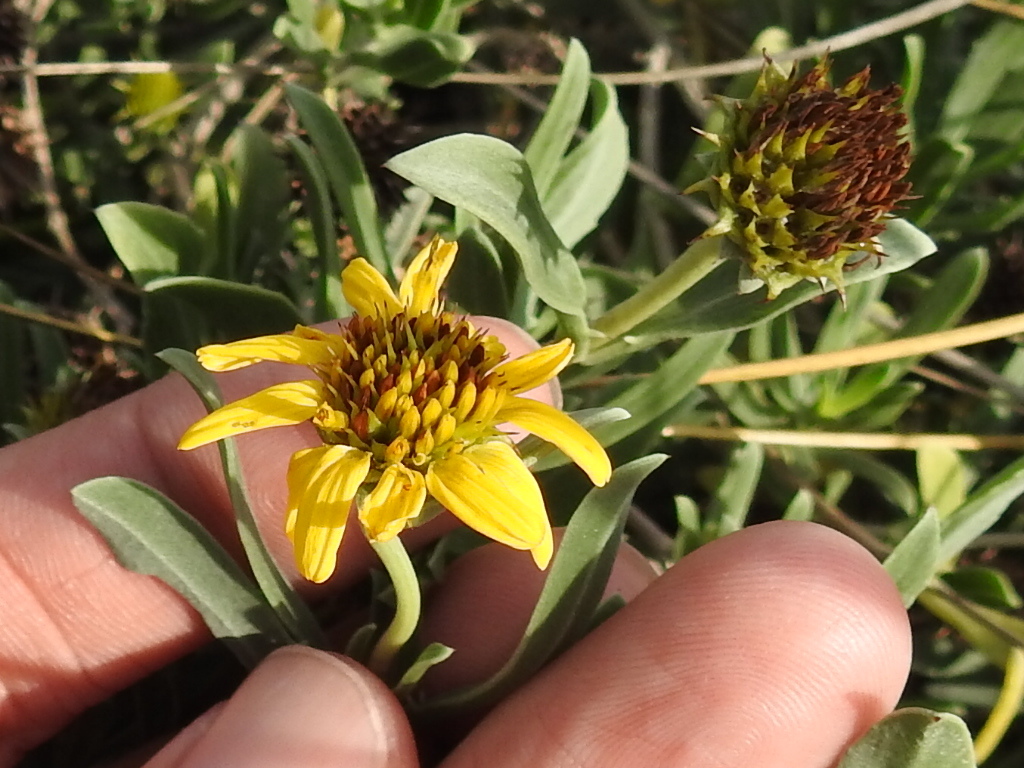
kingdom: Plantae
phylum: Tracheophyta
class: Magnoliopsida
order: Asterales
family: Asteraceae
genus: Borrichia
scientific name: Borrichia frutescens
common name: Sea oxeye
